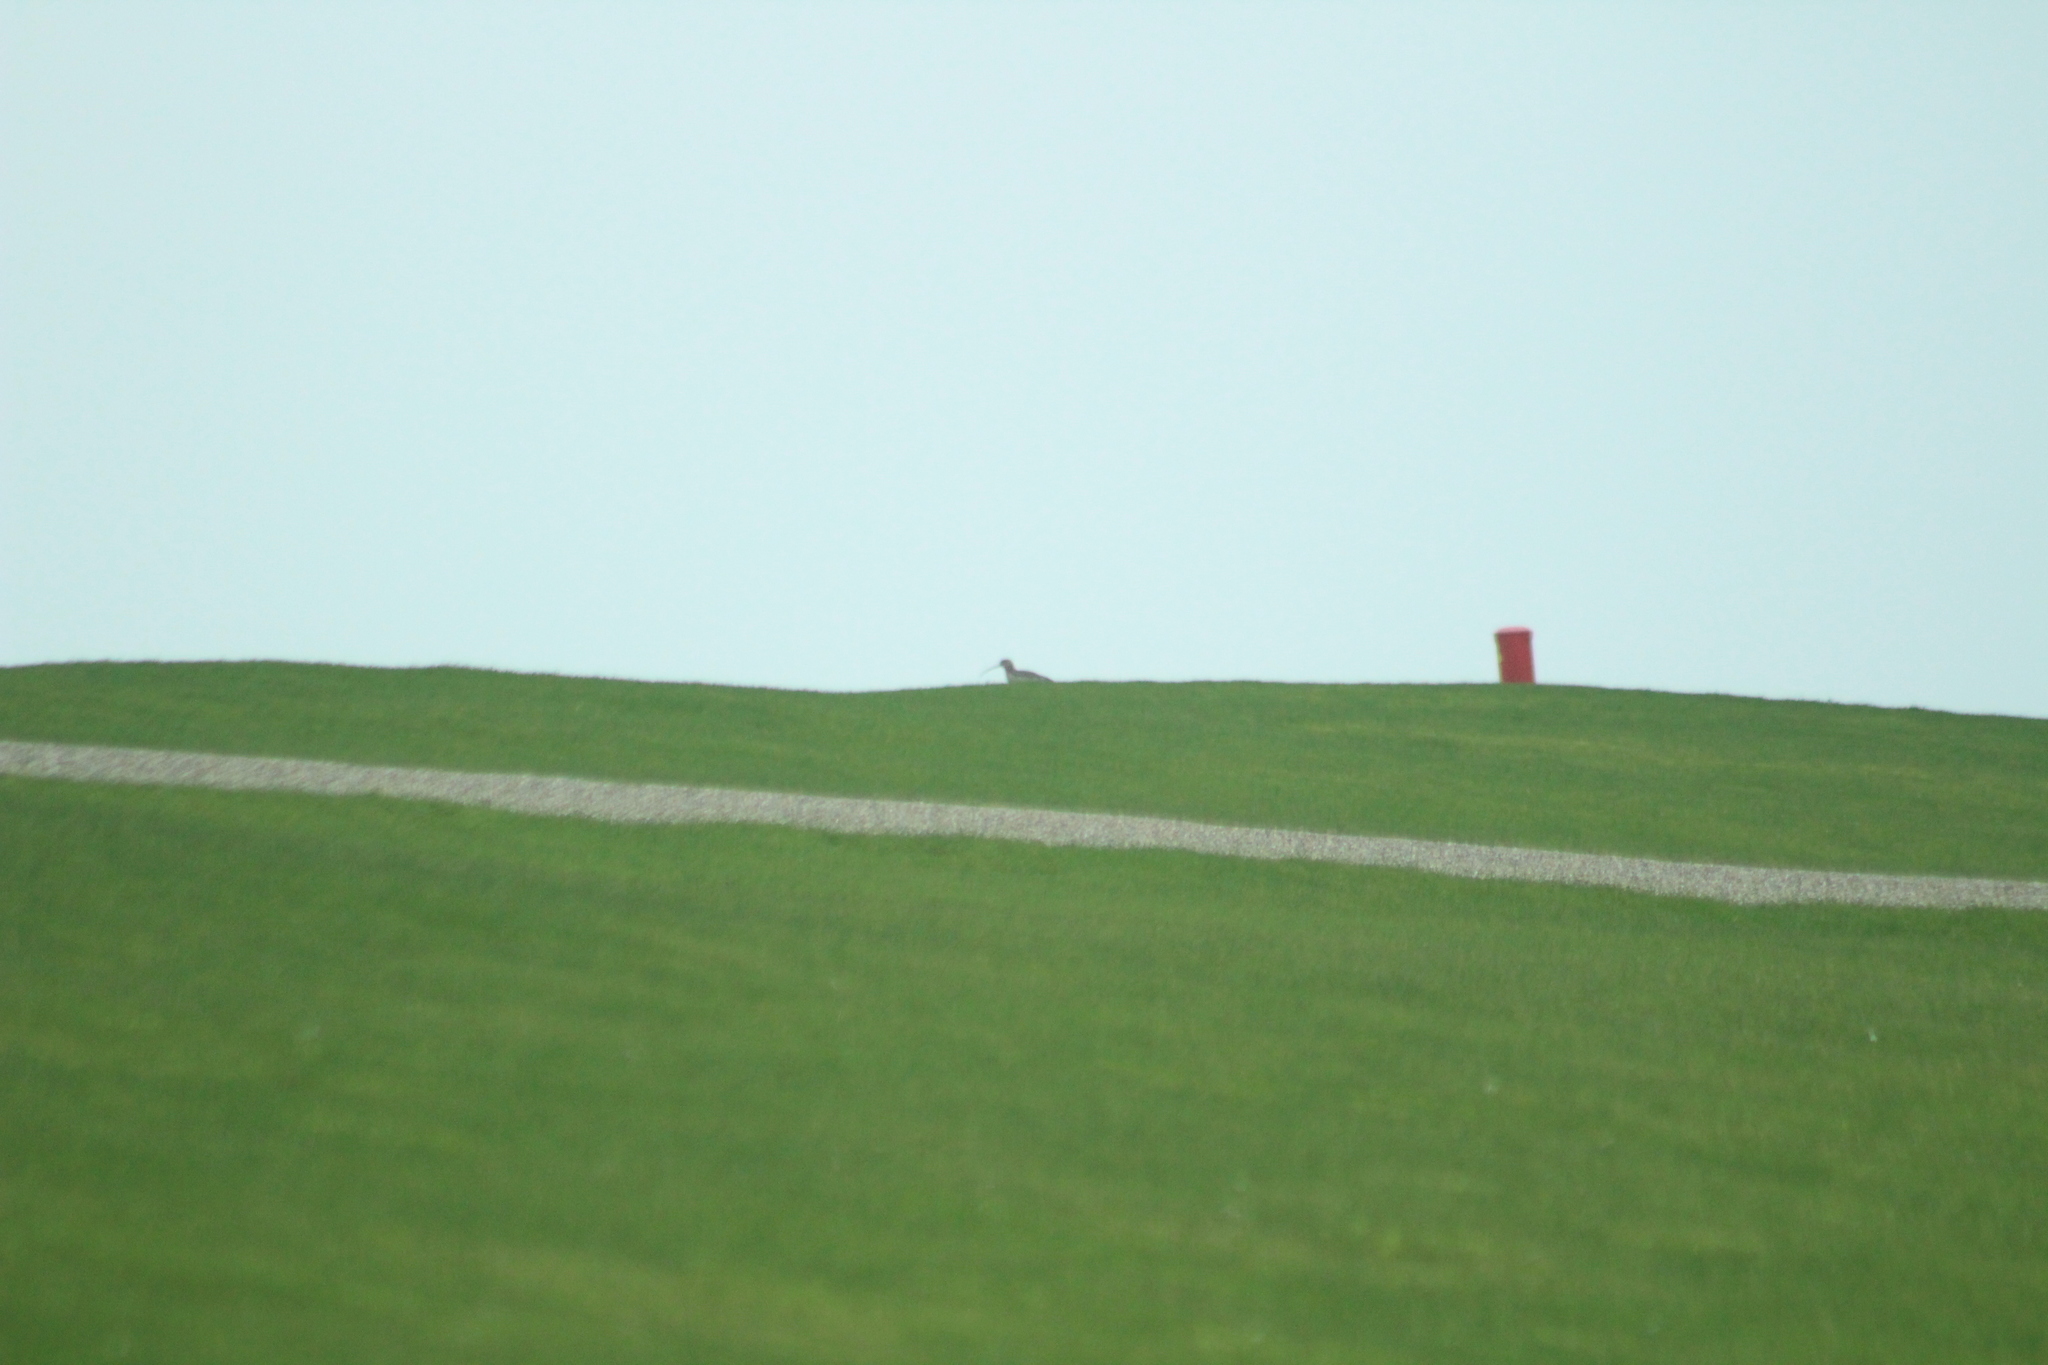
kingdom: Animalia
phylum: Chordata
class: Aves
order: Charadriiformes
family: Scolopacidae
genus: Numenius
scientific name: Numenius arquata
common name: Eurasian curlew
